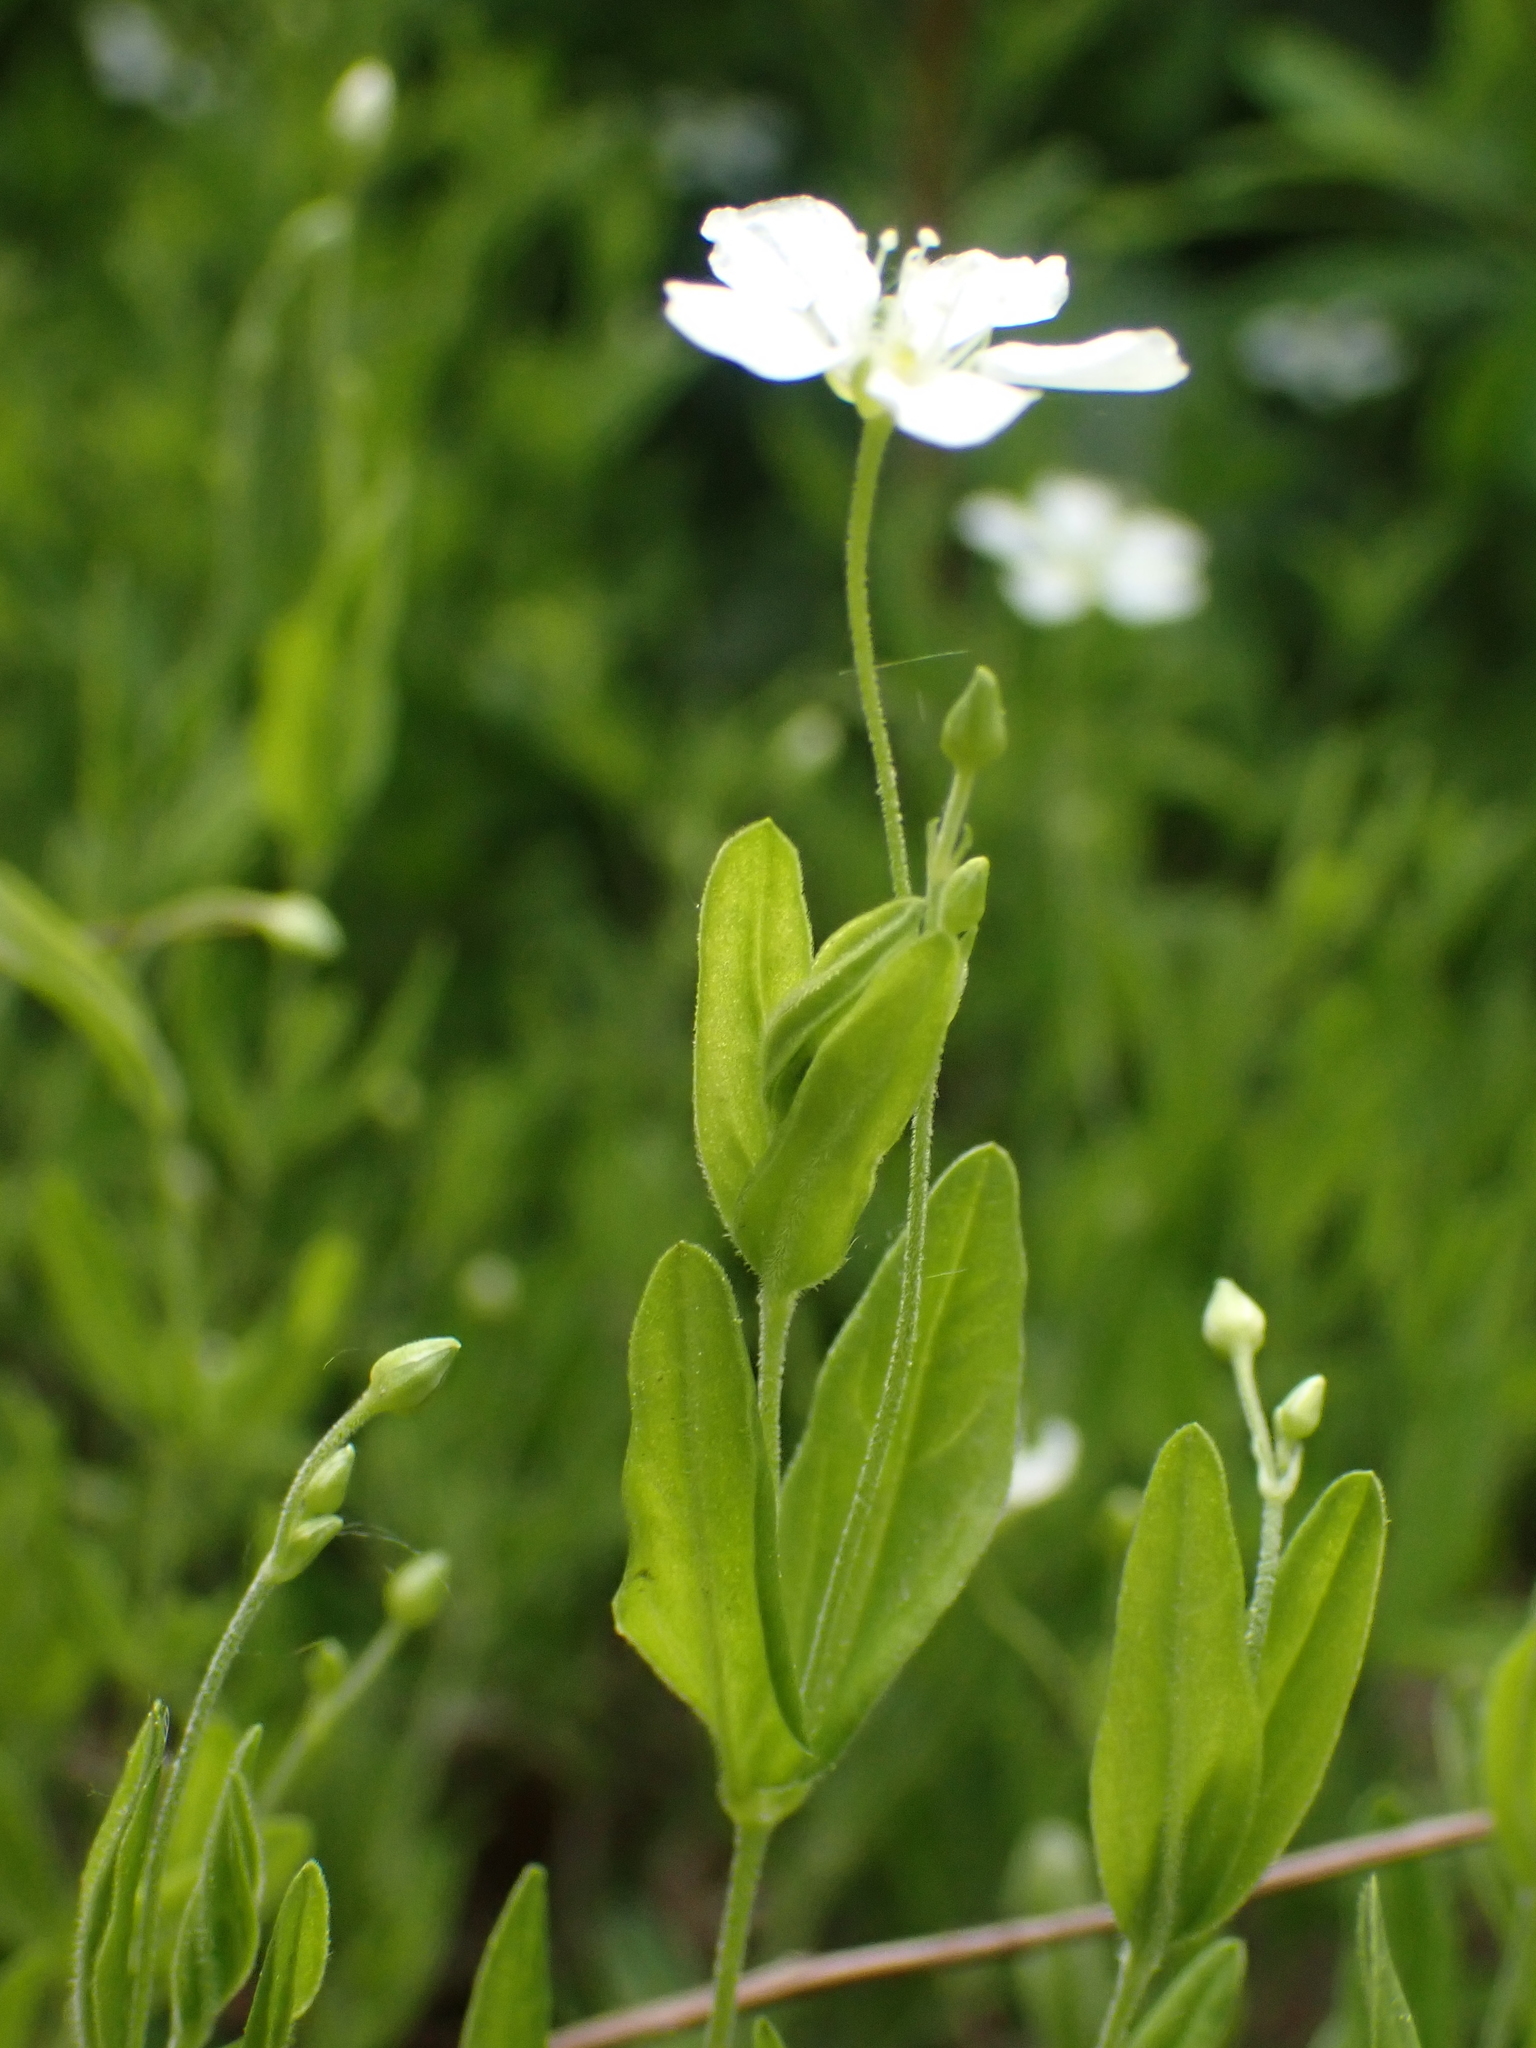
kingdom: Plantae
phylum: Tracheophyta
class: Magnoliopsida
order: Caryophyllales
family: Caryophyllaceae
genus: Moehringia
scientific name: Moehringia lateriflora
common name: Blunt-leaved sandwort
